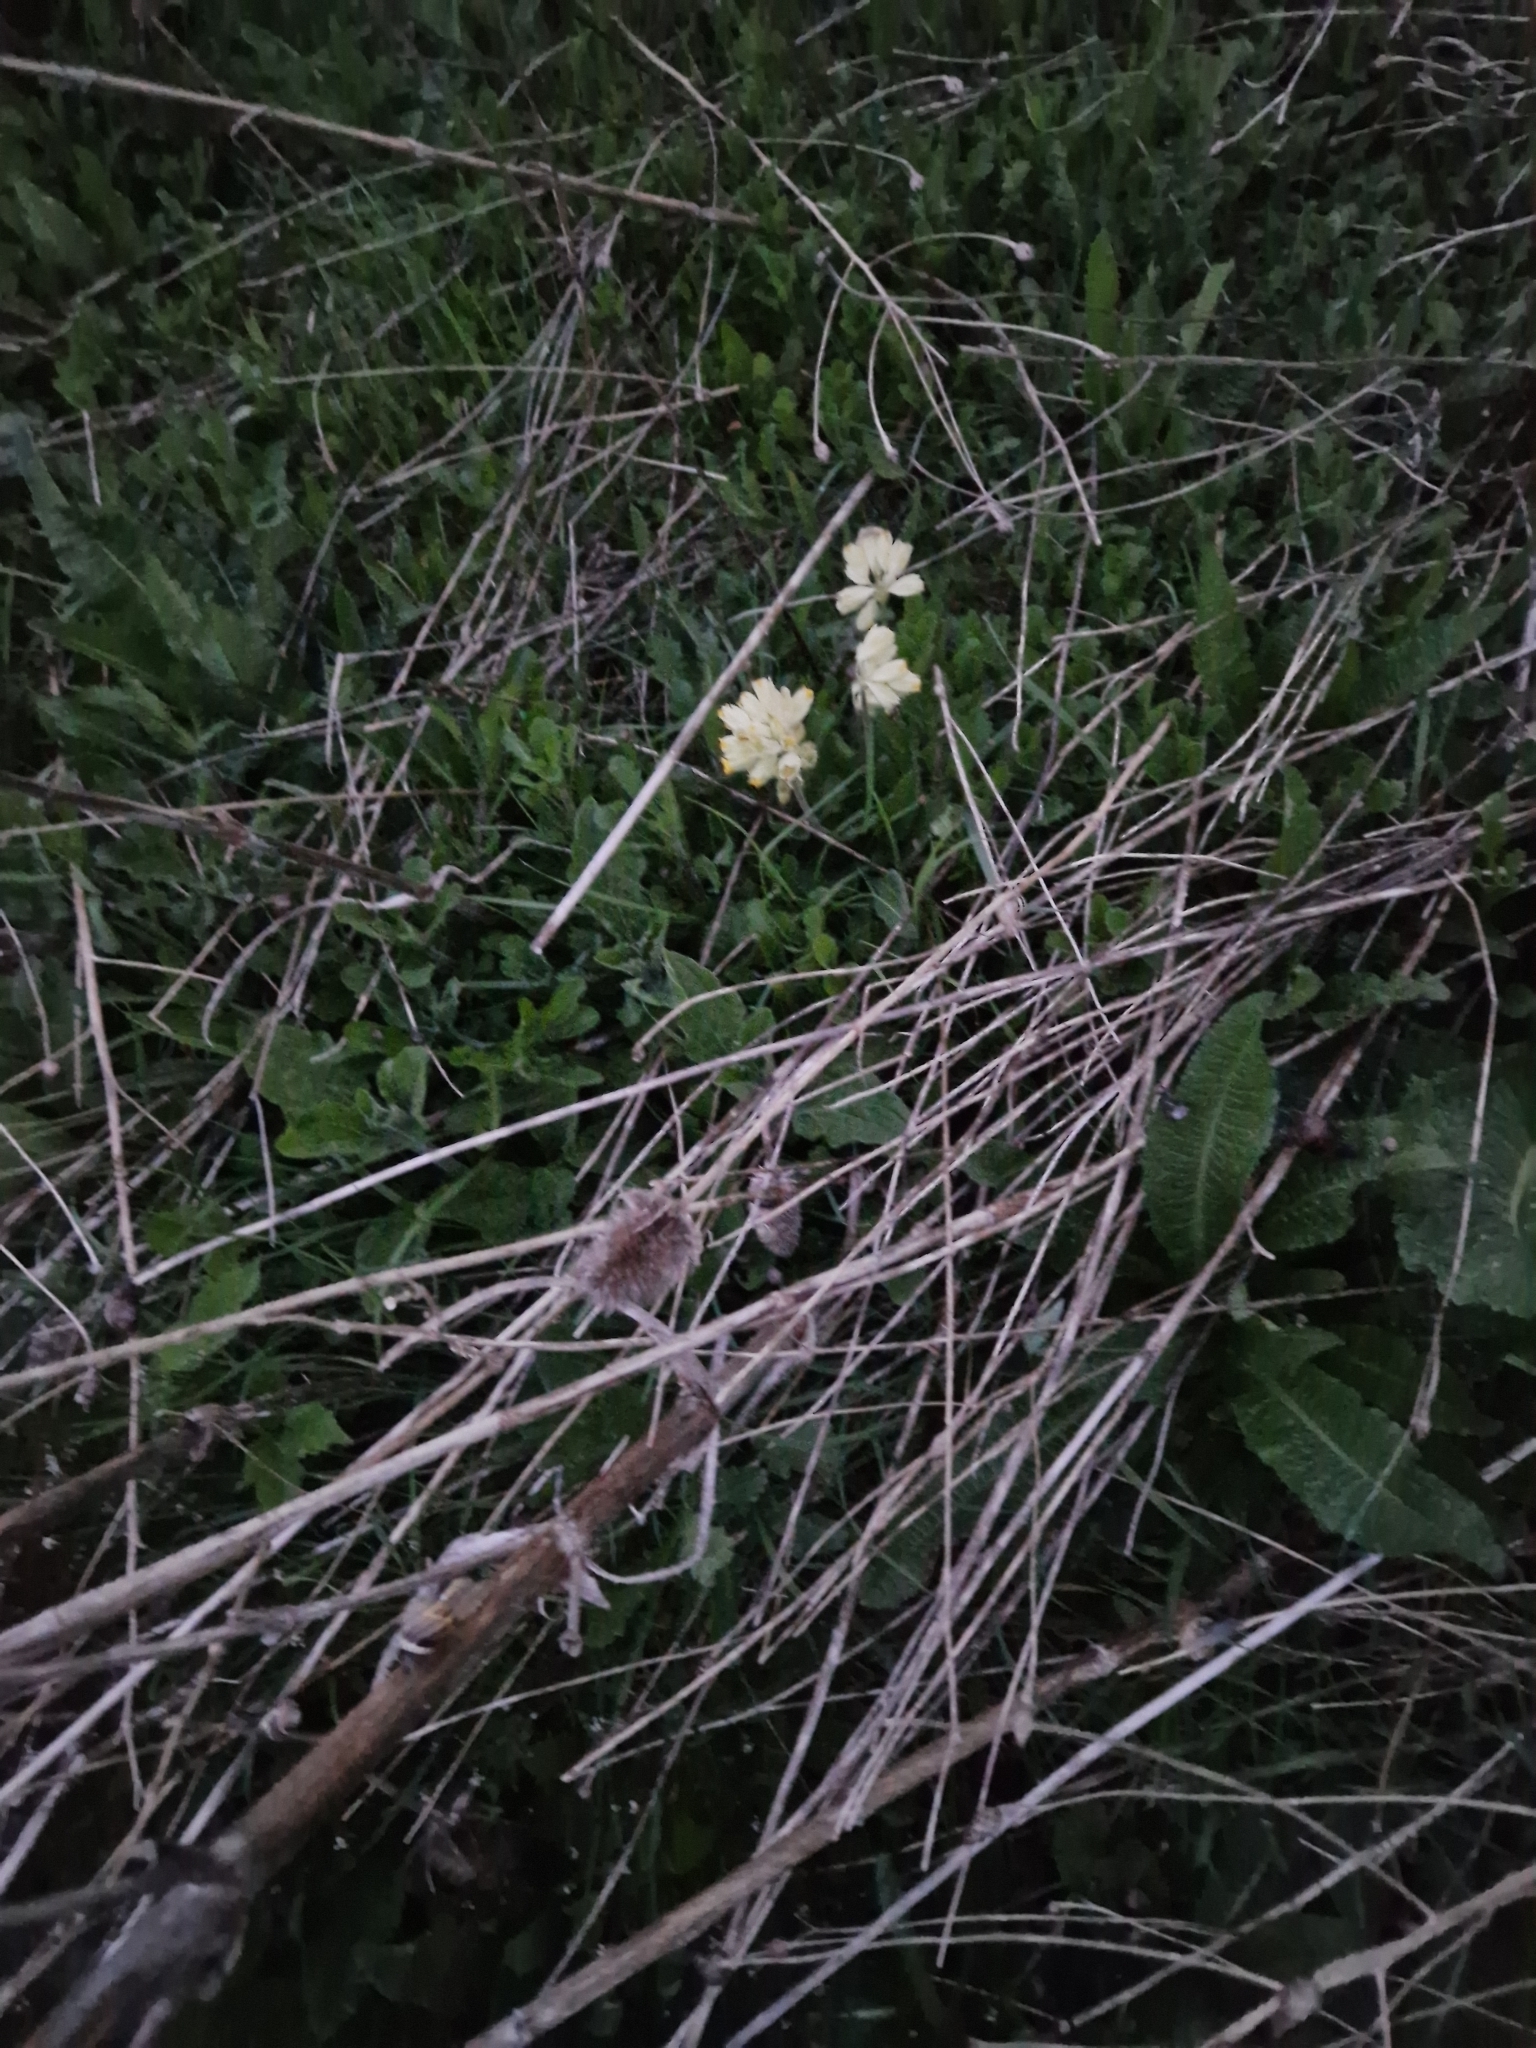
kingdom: Plantae
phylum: Tracheophyta
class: Magnoliopsida
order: Ericales
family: Primulaceae
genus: Primula
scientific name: Primula veris
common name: Cowslip
